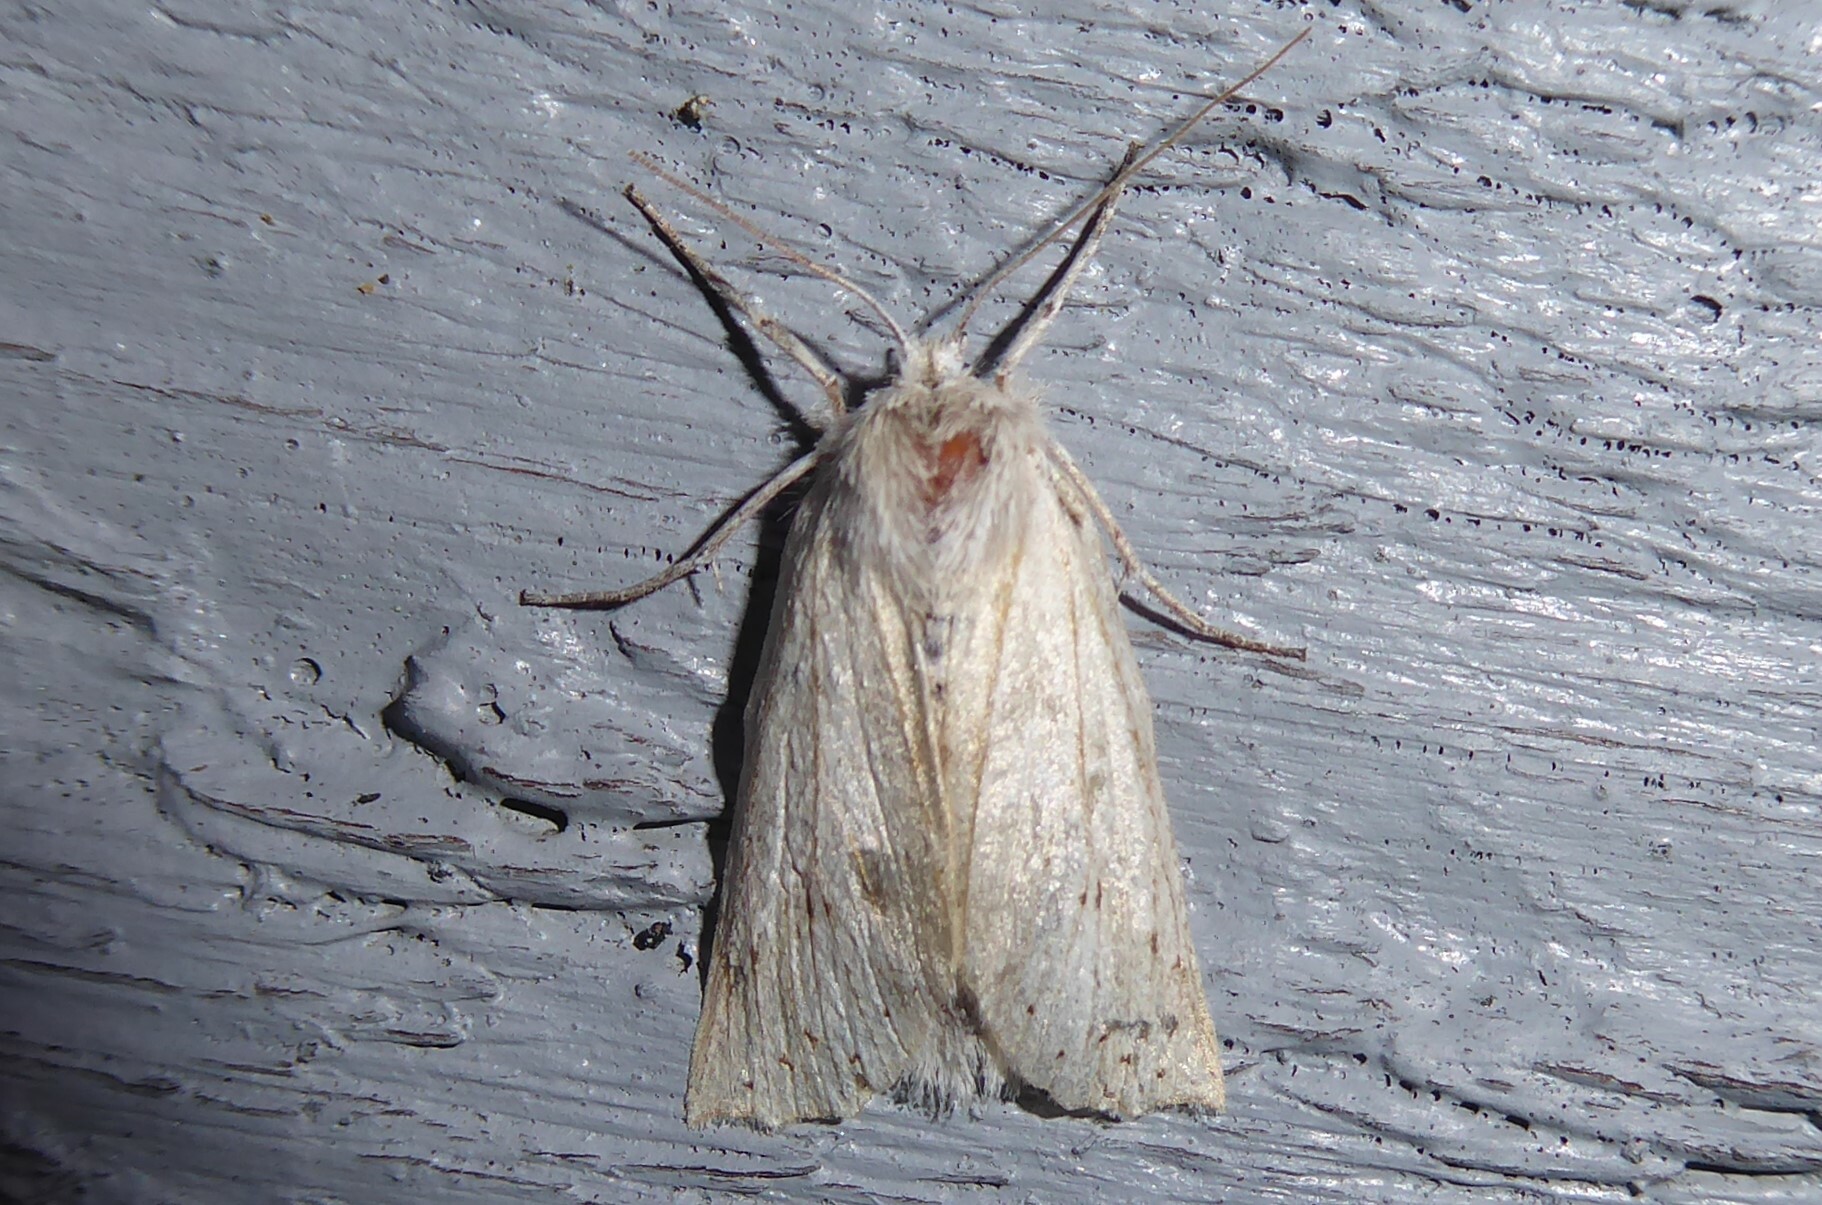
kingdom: Animalia
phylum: Arthropoda
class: Insecta
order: Lepidoptera
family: Geometridae
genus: Declana
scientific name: Declana leptomera
